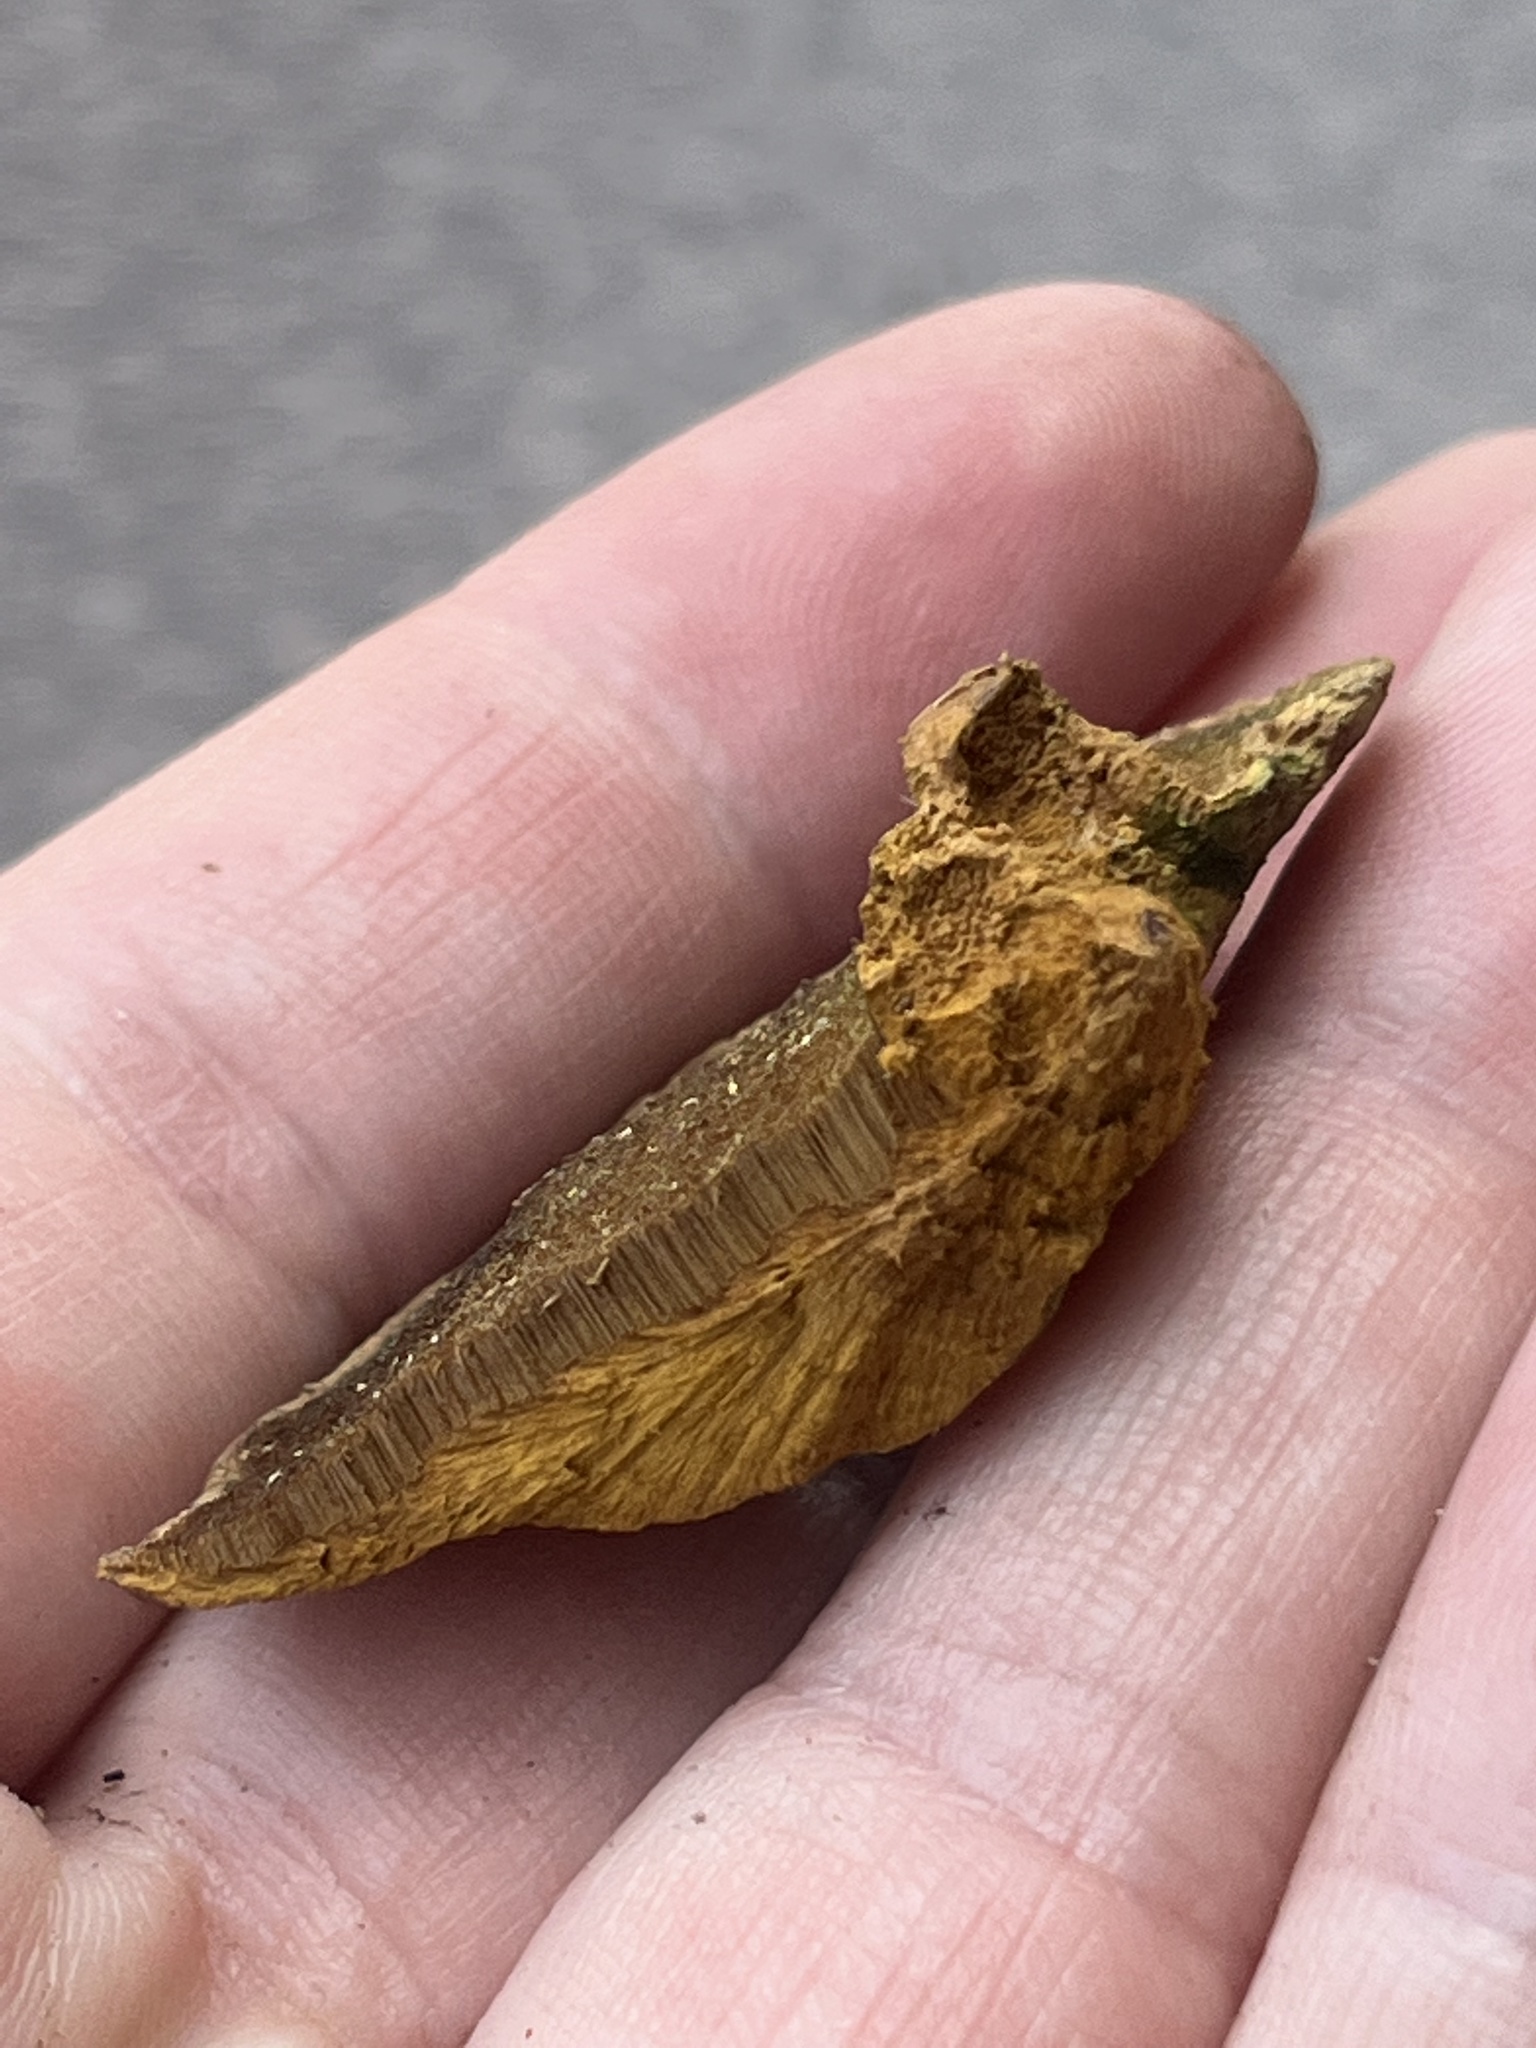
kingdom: Fungi
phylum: Basidiomycota
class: Agaricomycetes
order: Hymenochaetales
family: Hymenochaetaceae
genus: Phellinus
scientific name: Phellinus gilvus
